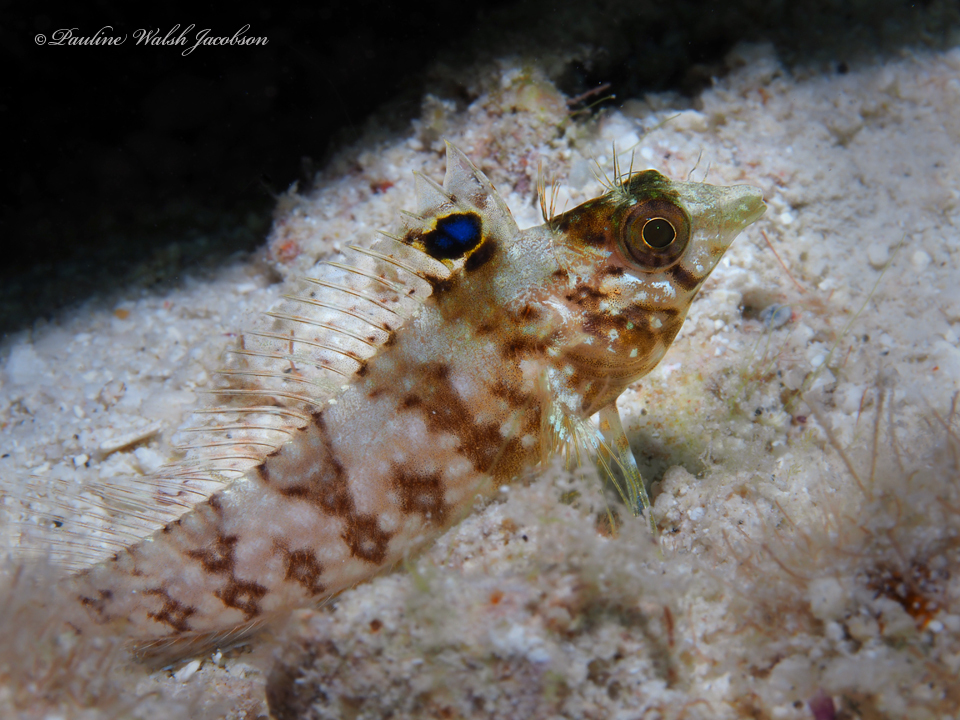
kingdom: Animalia
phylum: Chordata
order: Perciformes
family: Labrisomidae
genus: Malacoctenus
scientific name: Malacoctenus boehlkei
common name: Diamond blenny
